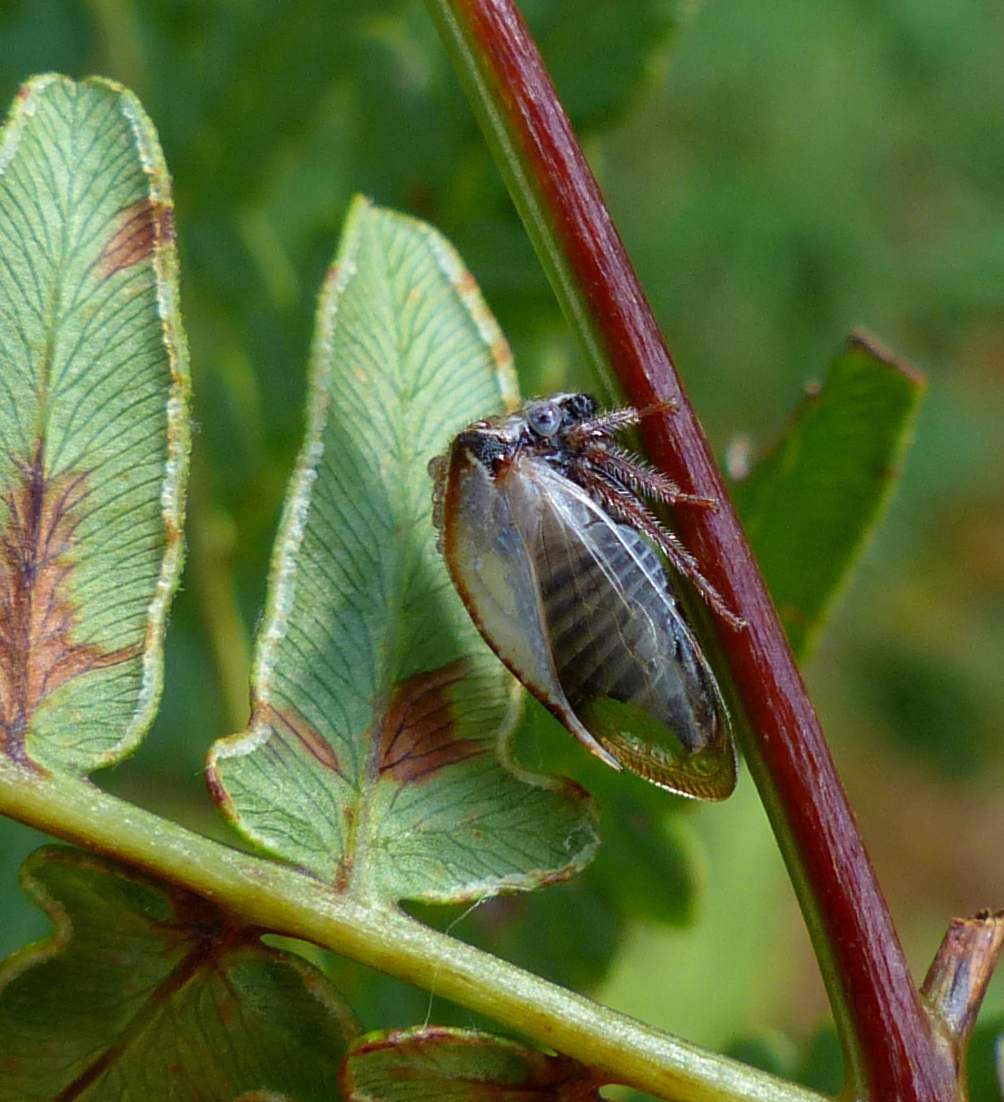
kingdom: Animalia
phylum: Arthropoda
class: Insecta
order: Hemiptera
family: Membracidae
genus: Stictocephala
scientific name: Stictocephala basalis
